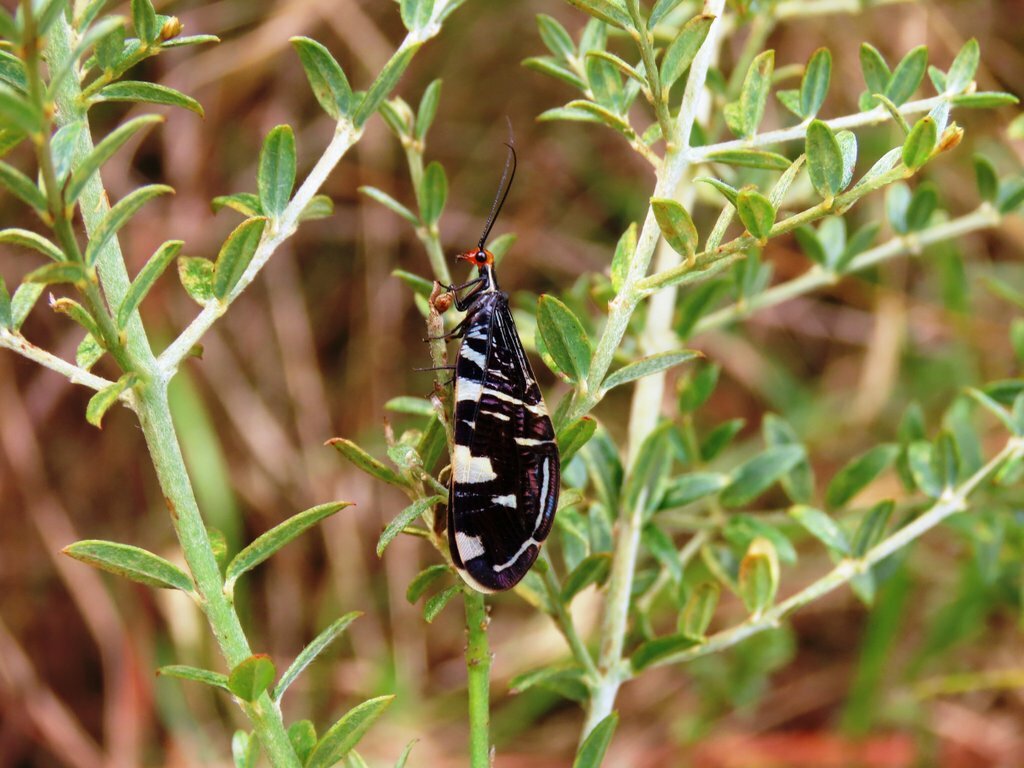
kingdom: Animalia
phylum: Arthropoda
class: Insecta
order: Neuroptera
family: Osmylidae
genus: Porismus
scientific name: Porismus strigatus
